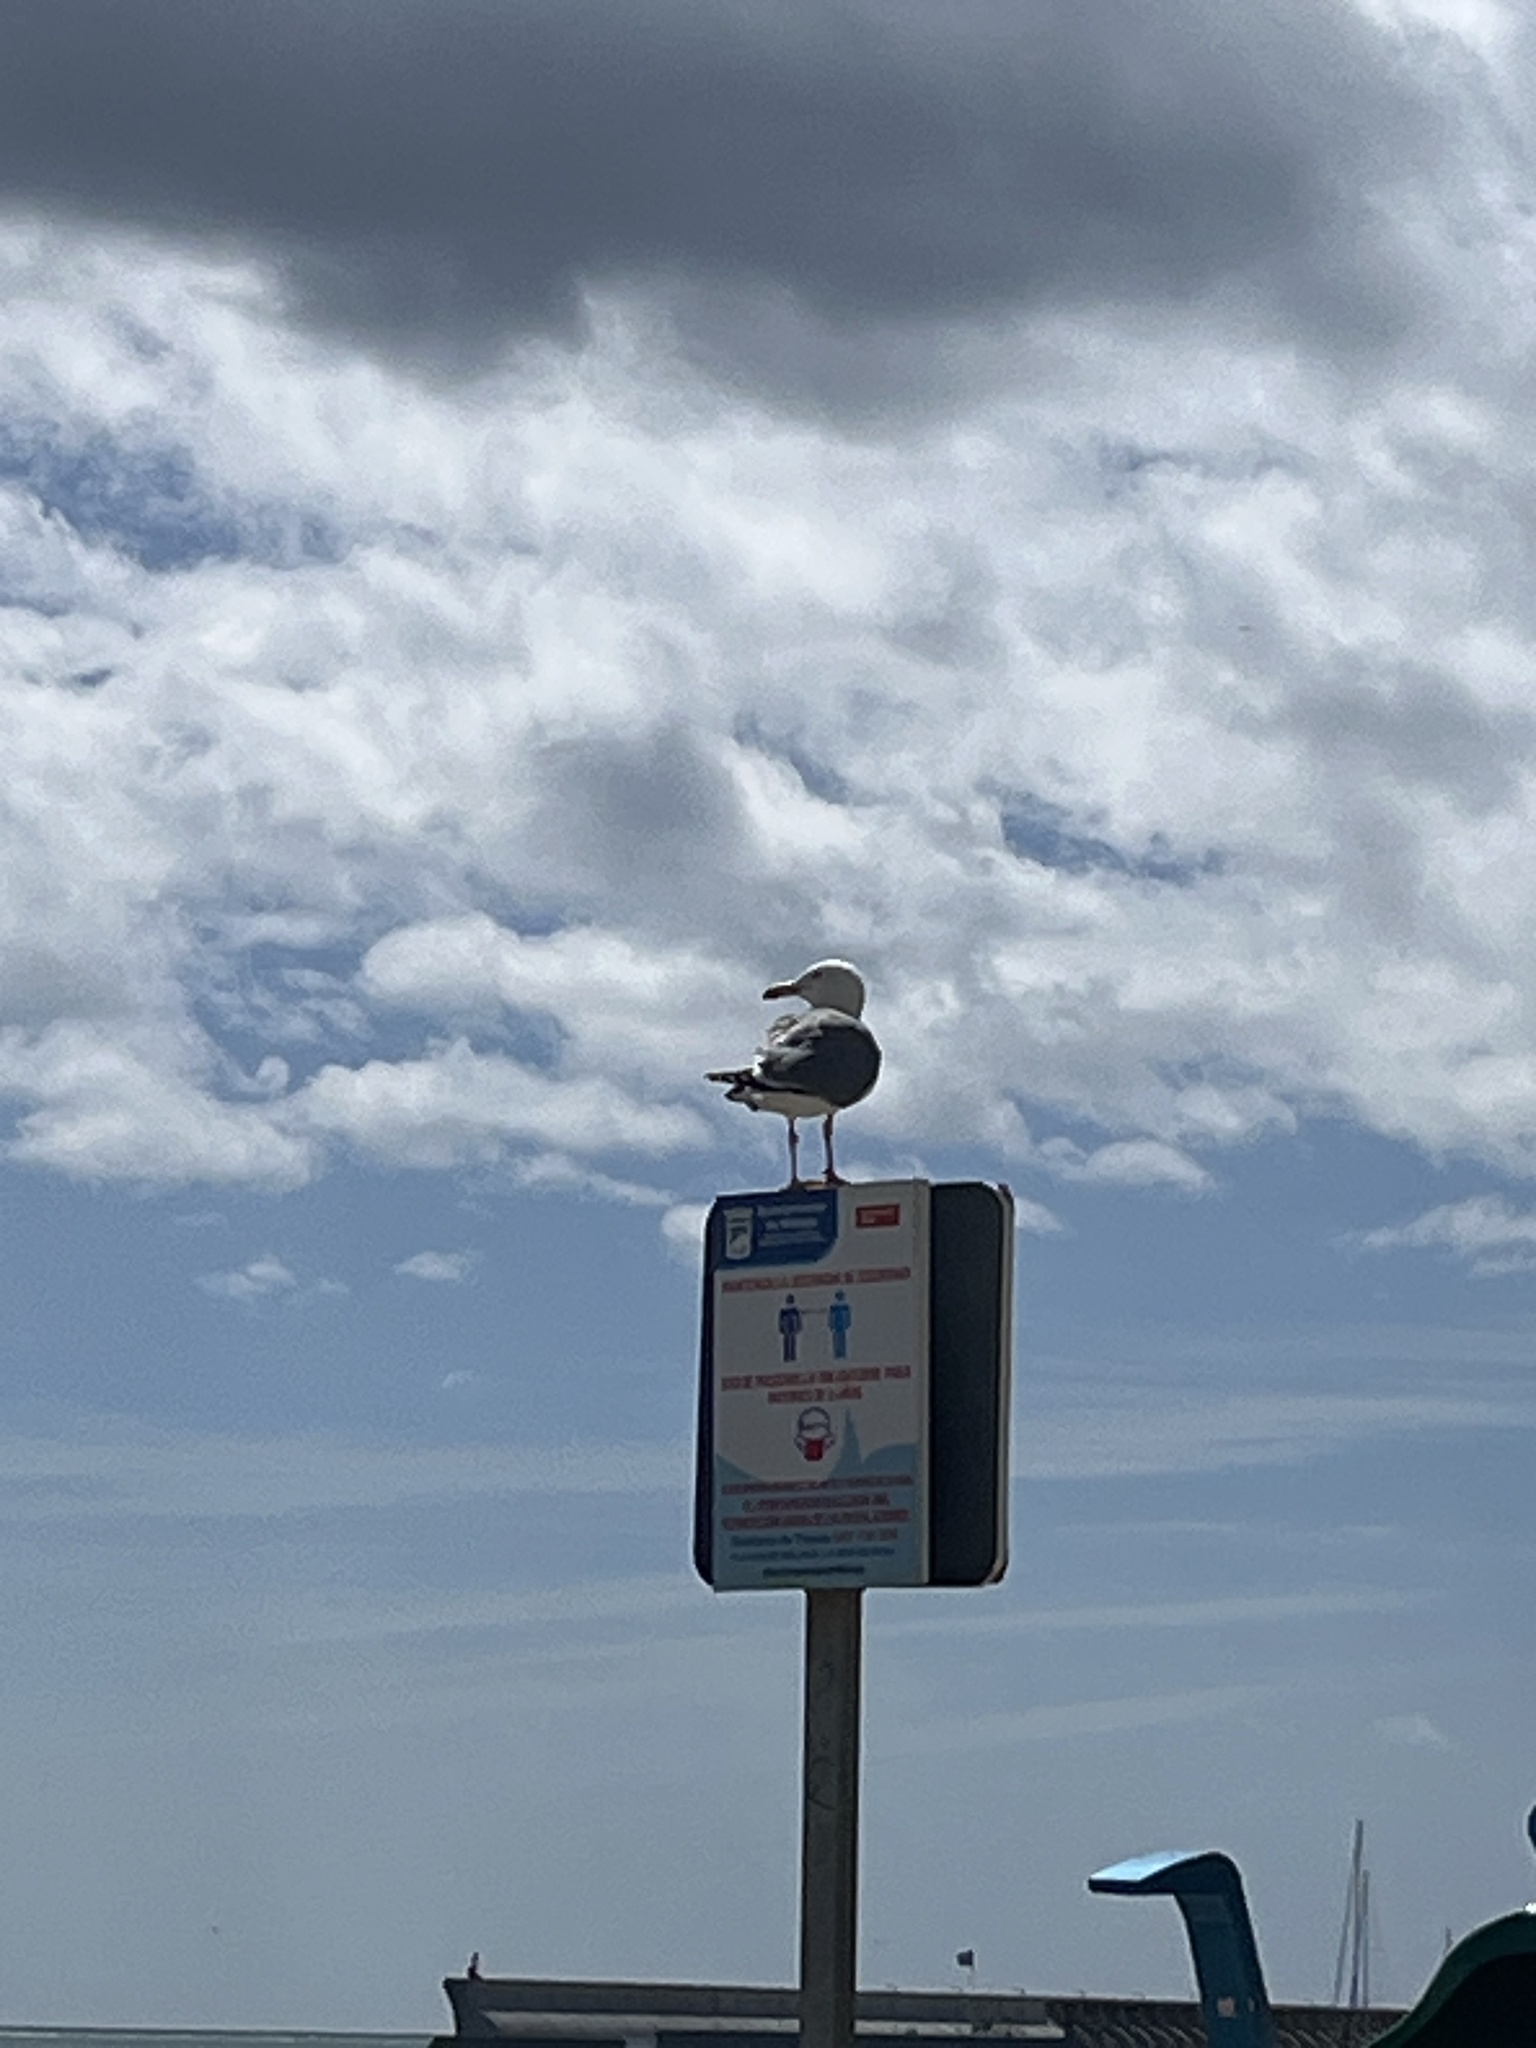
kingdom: Animalia
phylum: Chordata
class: Aves
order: Charadriiformes
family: Laridae
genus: Larus
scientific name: Larus michahellis
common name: Yellow-legged gull
